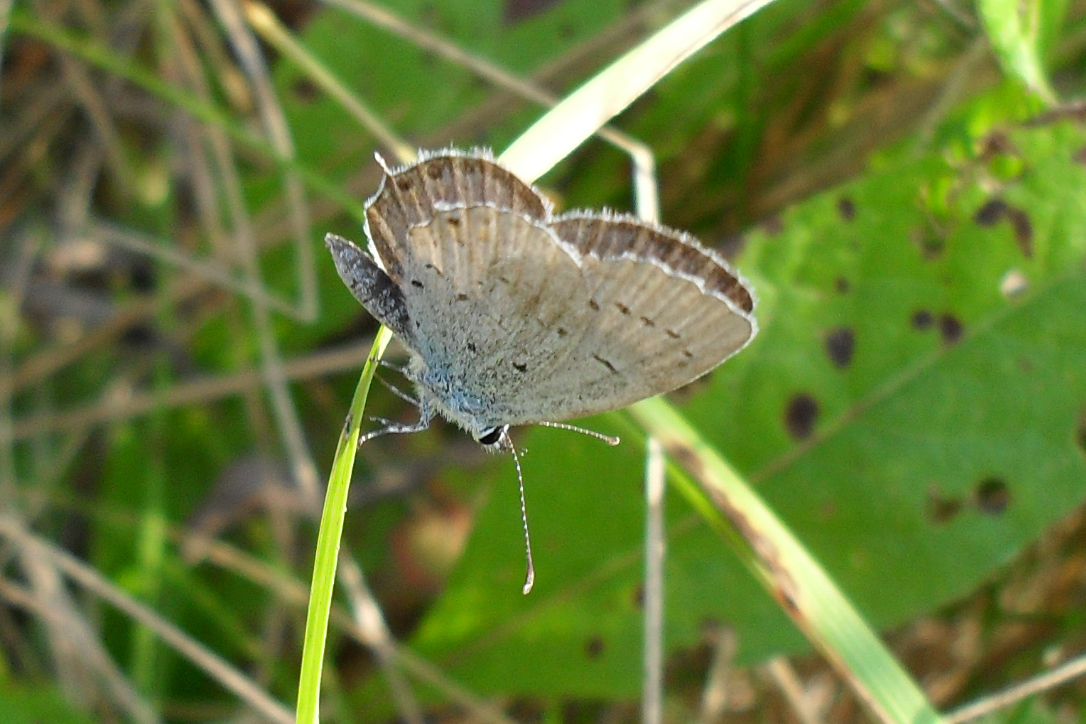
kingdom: Animalia
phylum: Arthropoda
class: Insecta
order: Lepidoptera
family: Lycaenidae
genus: Elkalyce
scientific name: Elkalyce argiades
